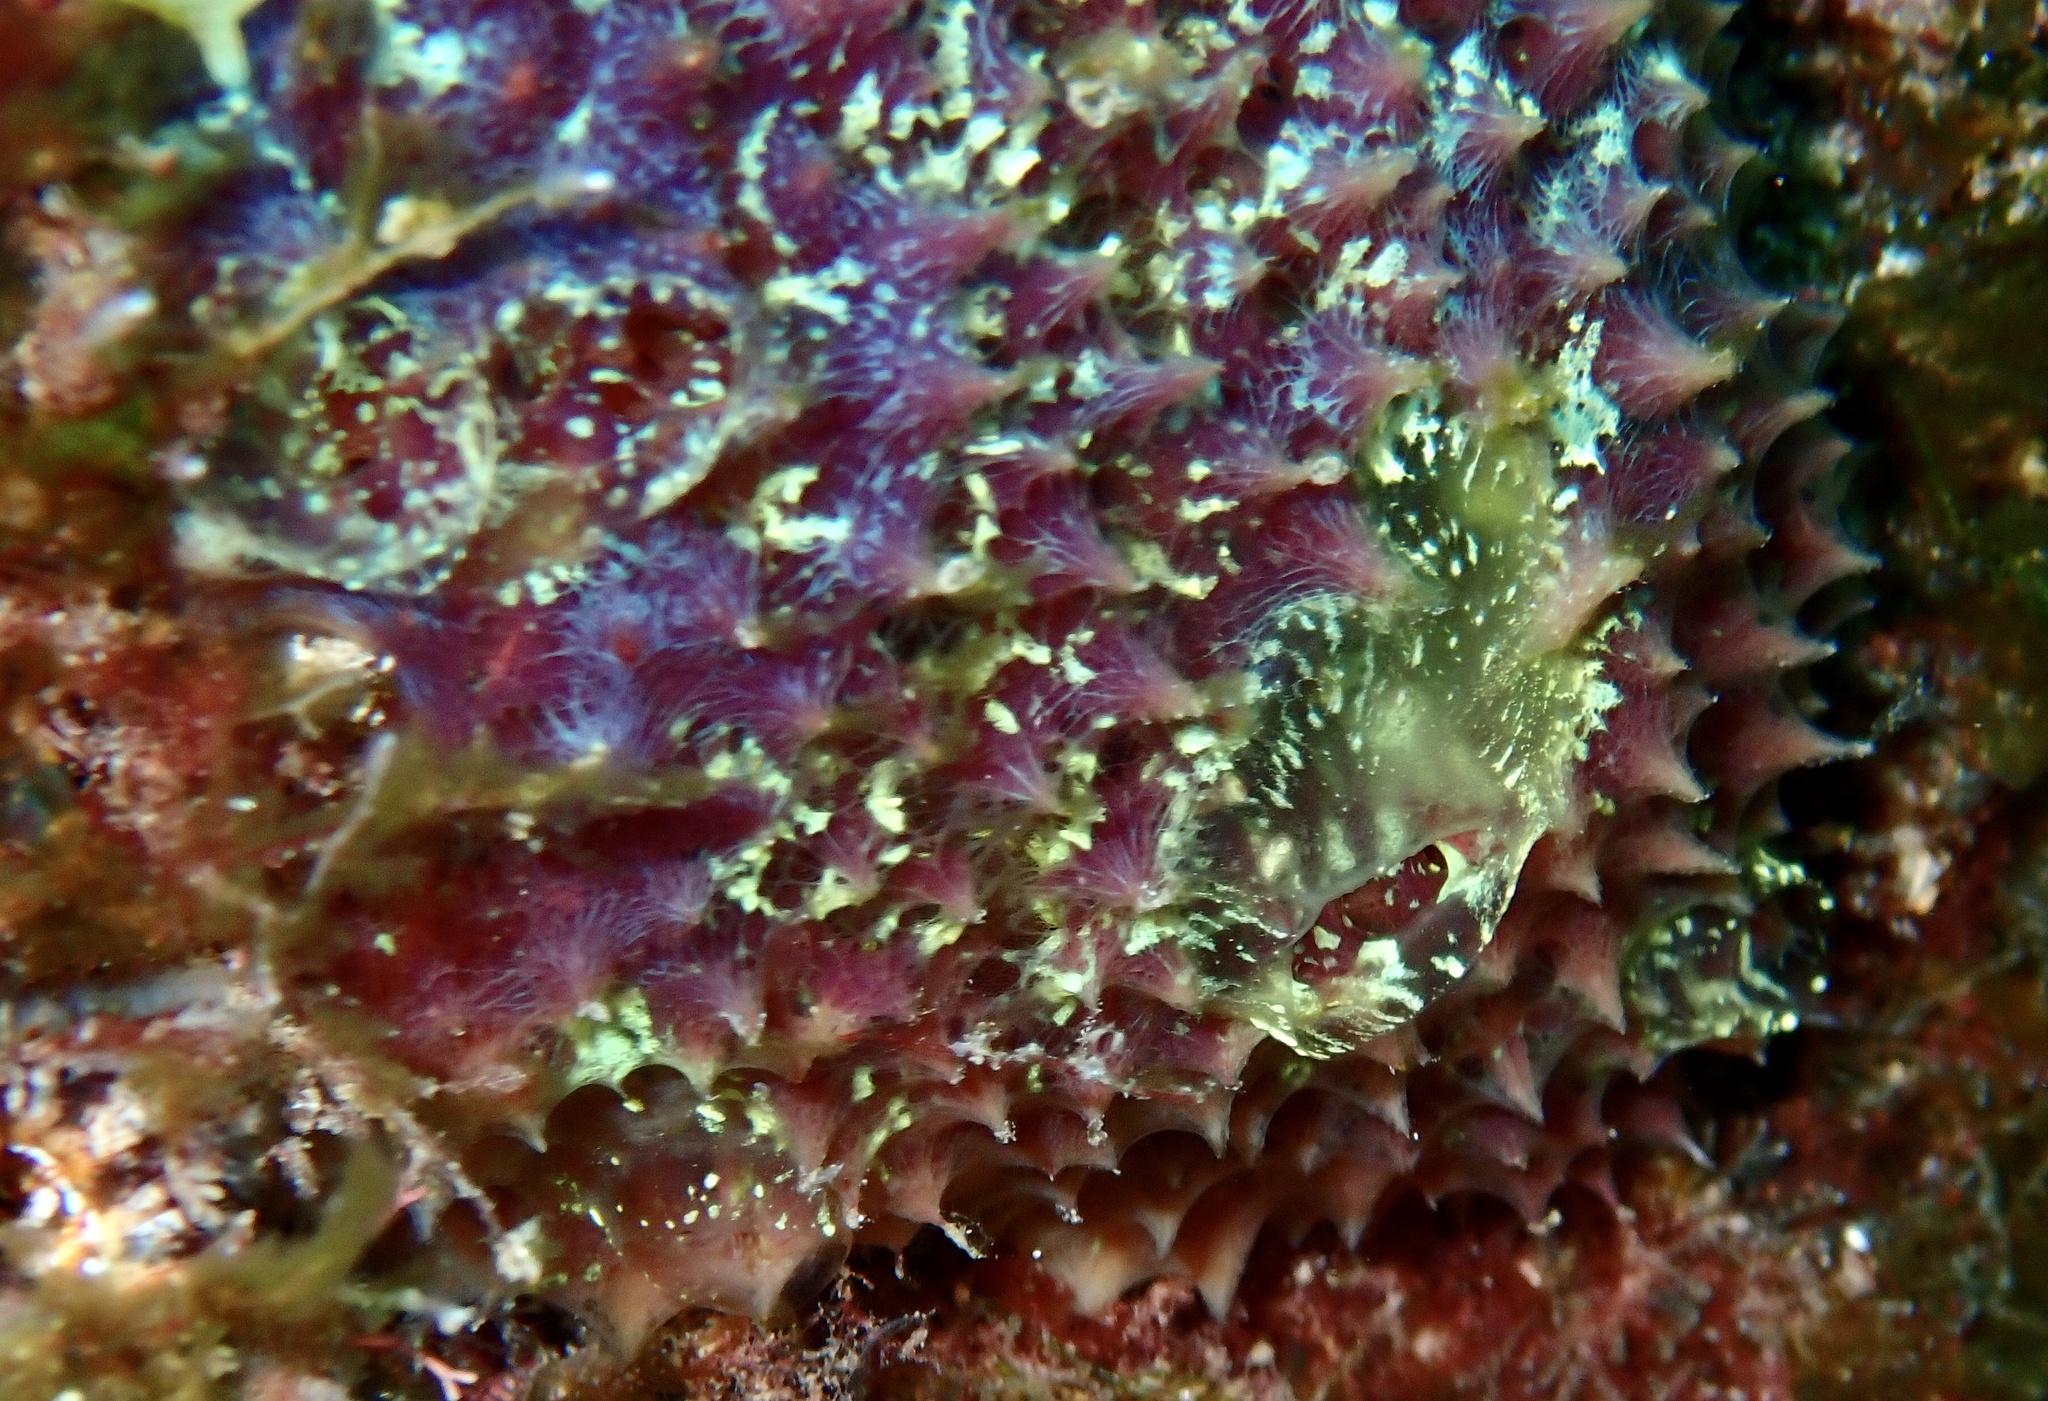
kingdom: Animalia
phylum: Porifera
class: Demospongiae
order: Poecilosclerida
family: Mycalidae
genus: Mycale
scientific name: Mycale laxissima
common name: Strawberry vase sponge
